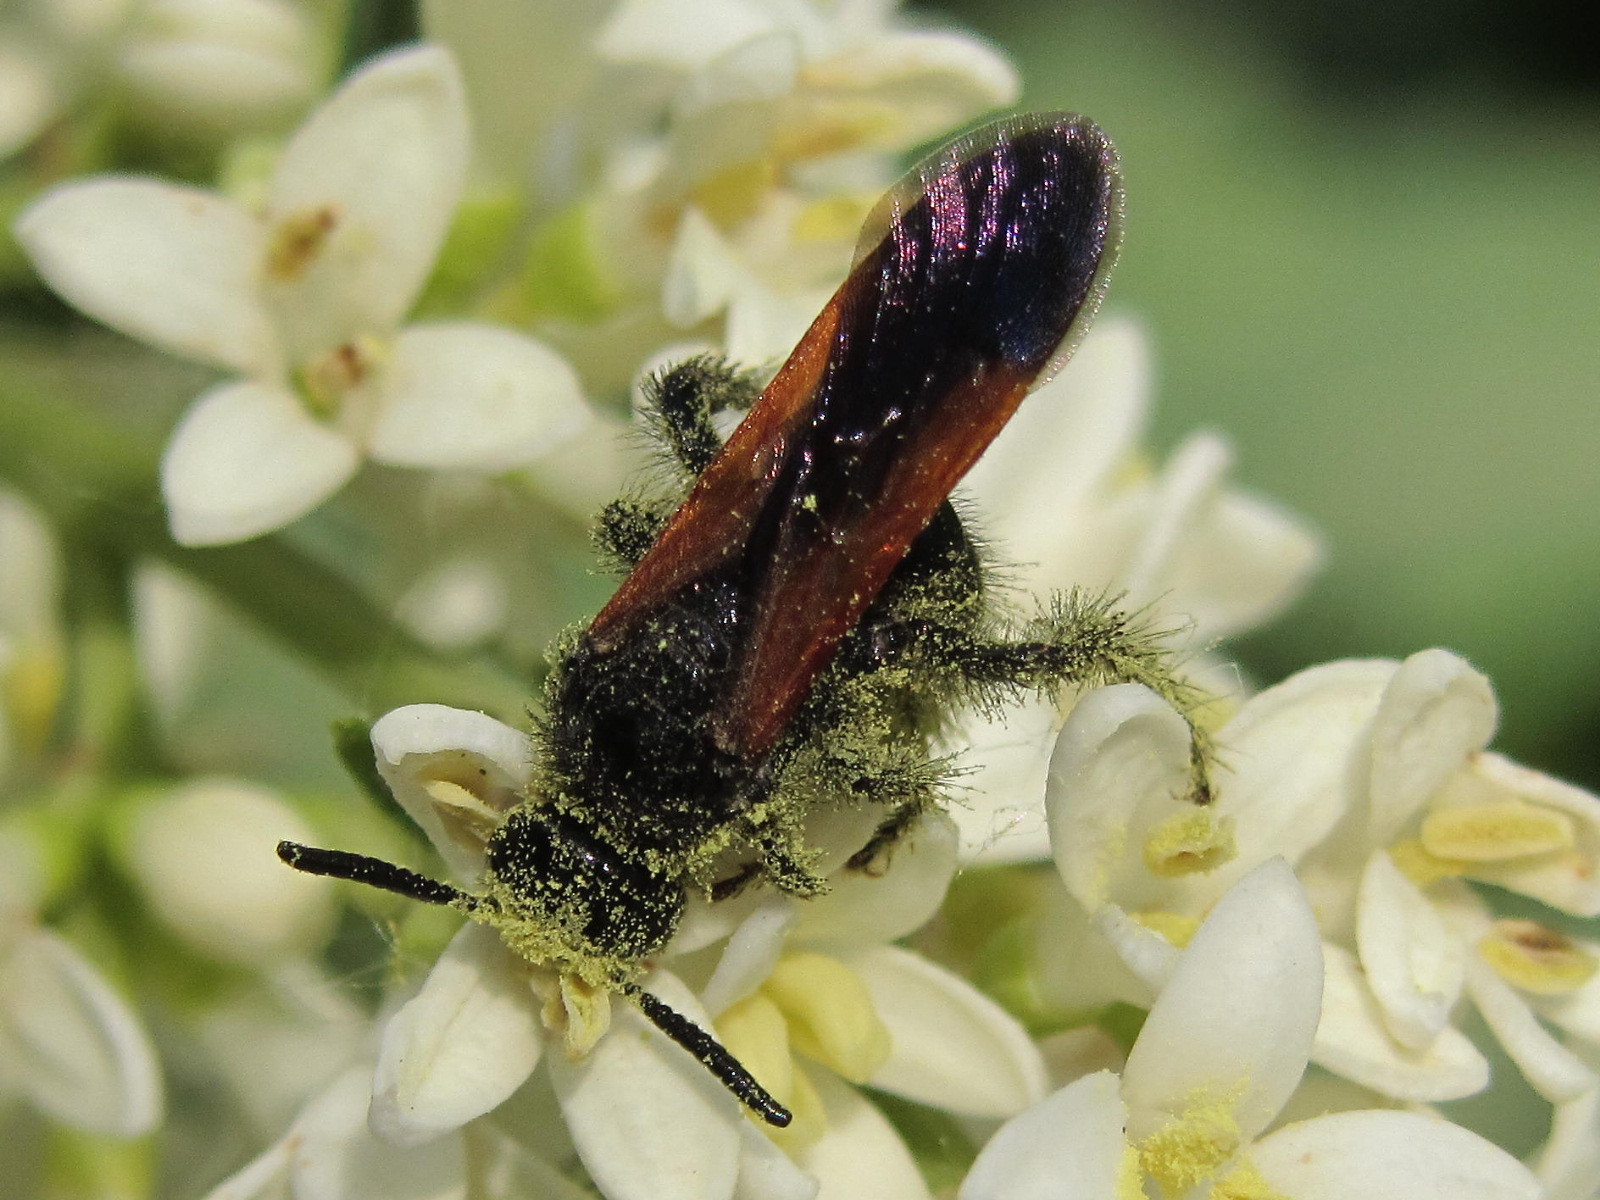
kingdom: Animalia
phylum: Arthropoda
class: Insecta
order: Hymenoptera
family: Vespidae
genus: Vespa
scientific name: Vespa sexmaculata
